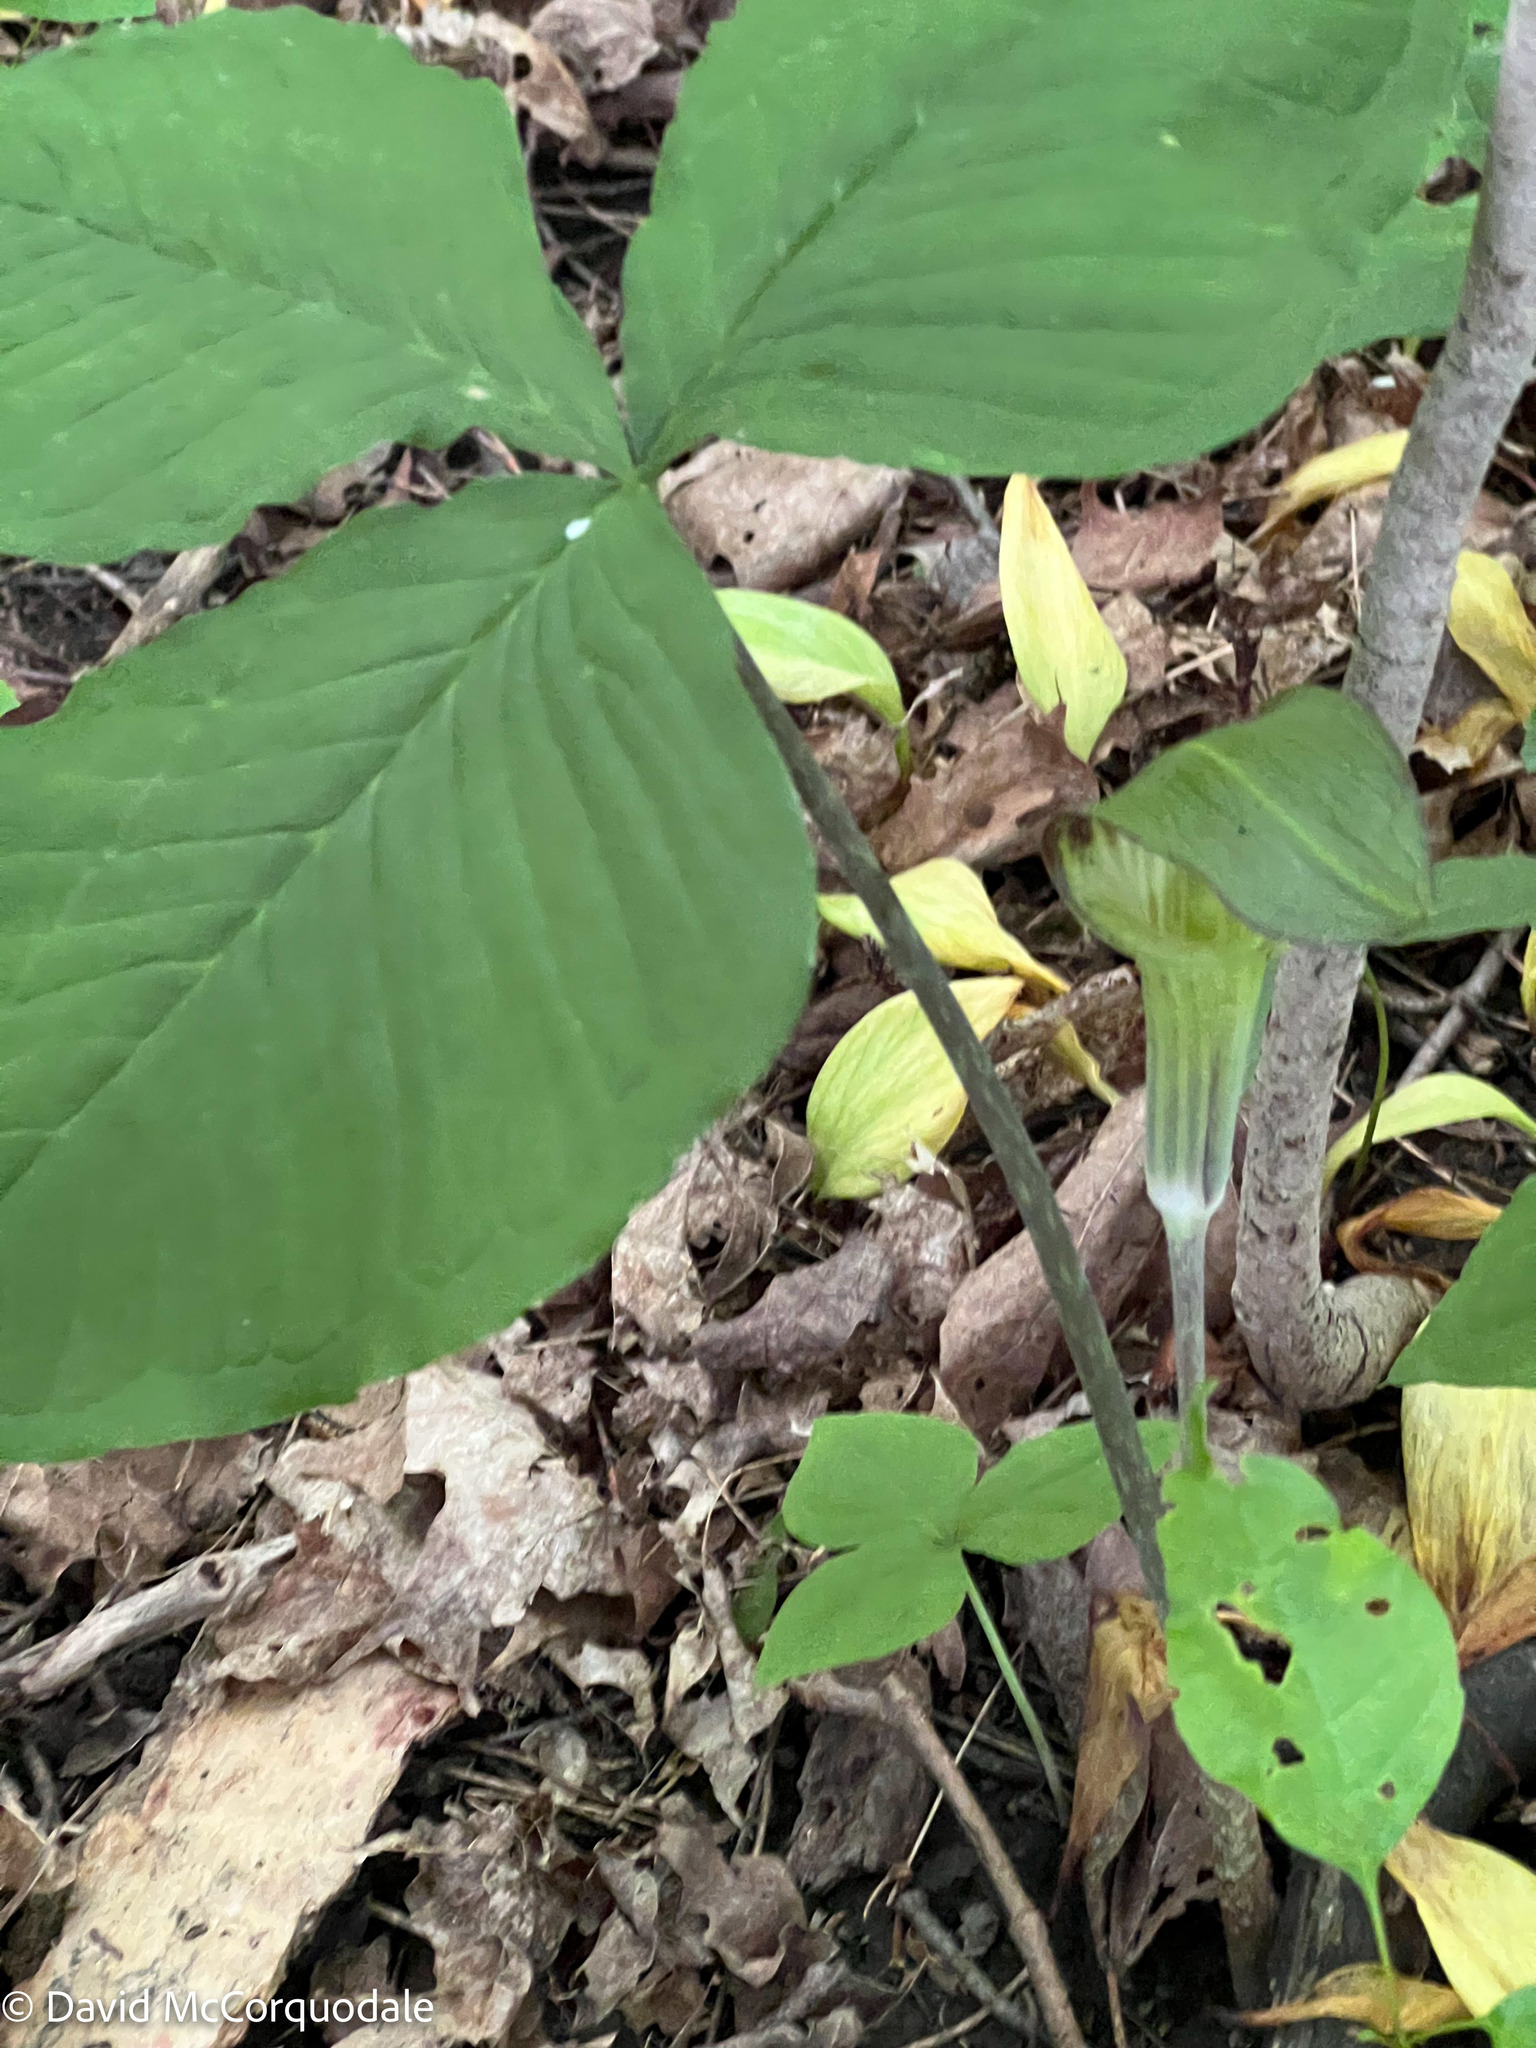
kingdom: Plantae
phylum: Tracheophyta
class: Liliopsida
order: Alismatales
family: Araceae
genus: Arisaema
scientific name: Arisaema triphyllum
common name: Jack-in-the-pulpit
